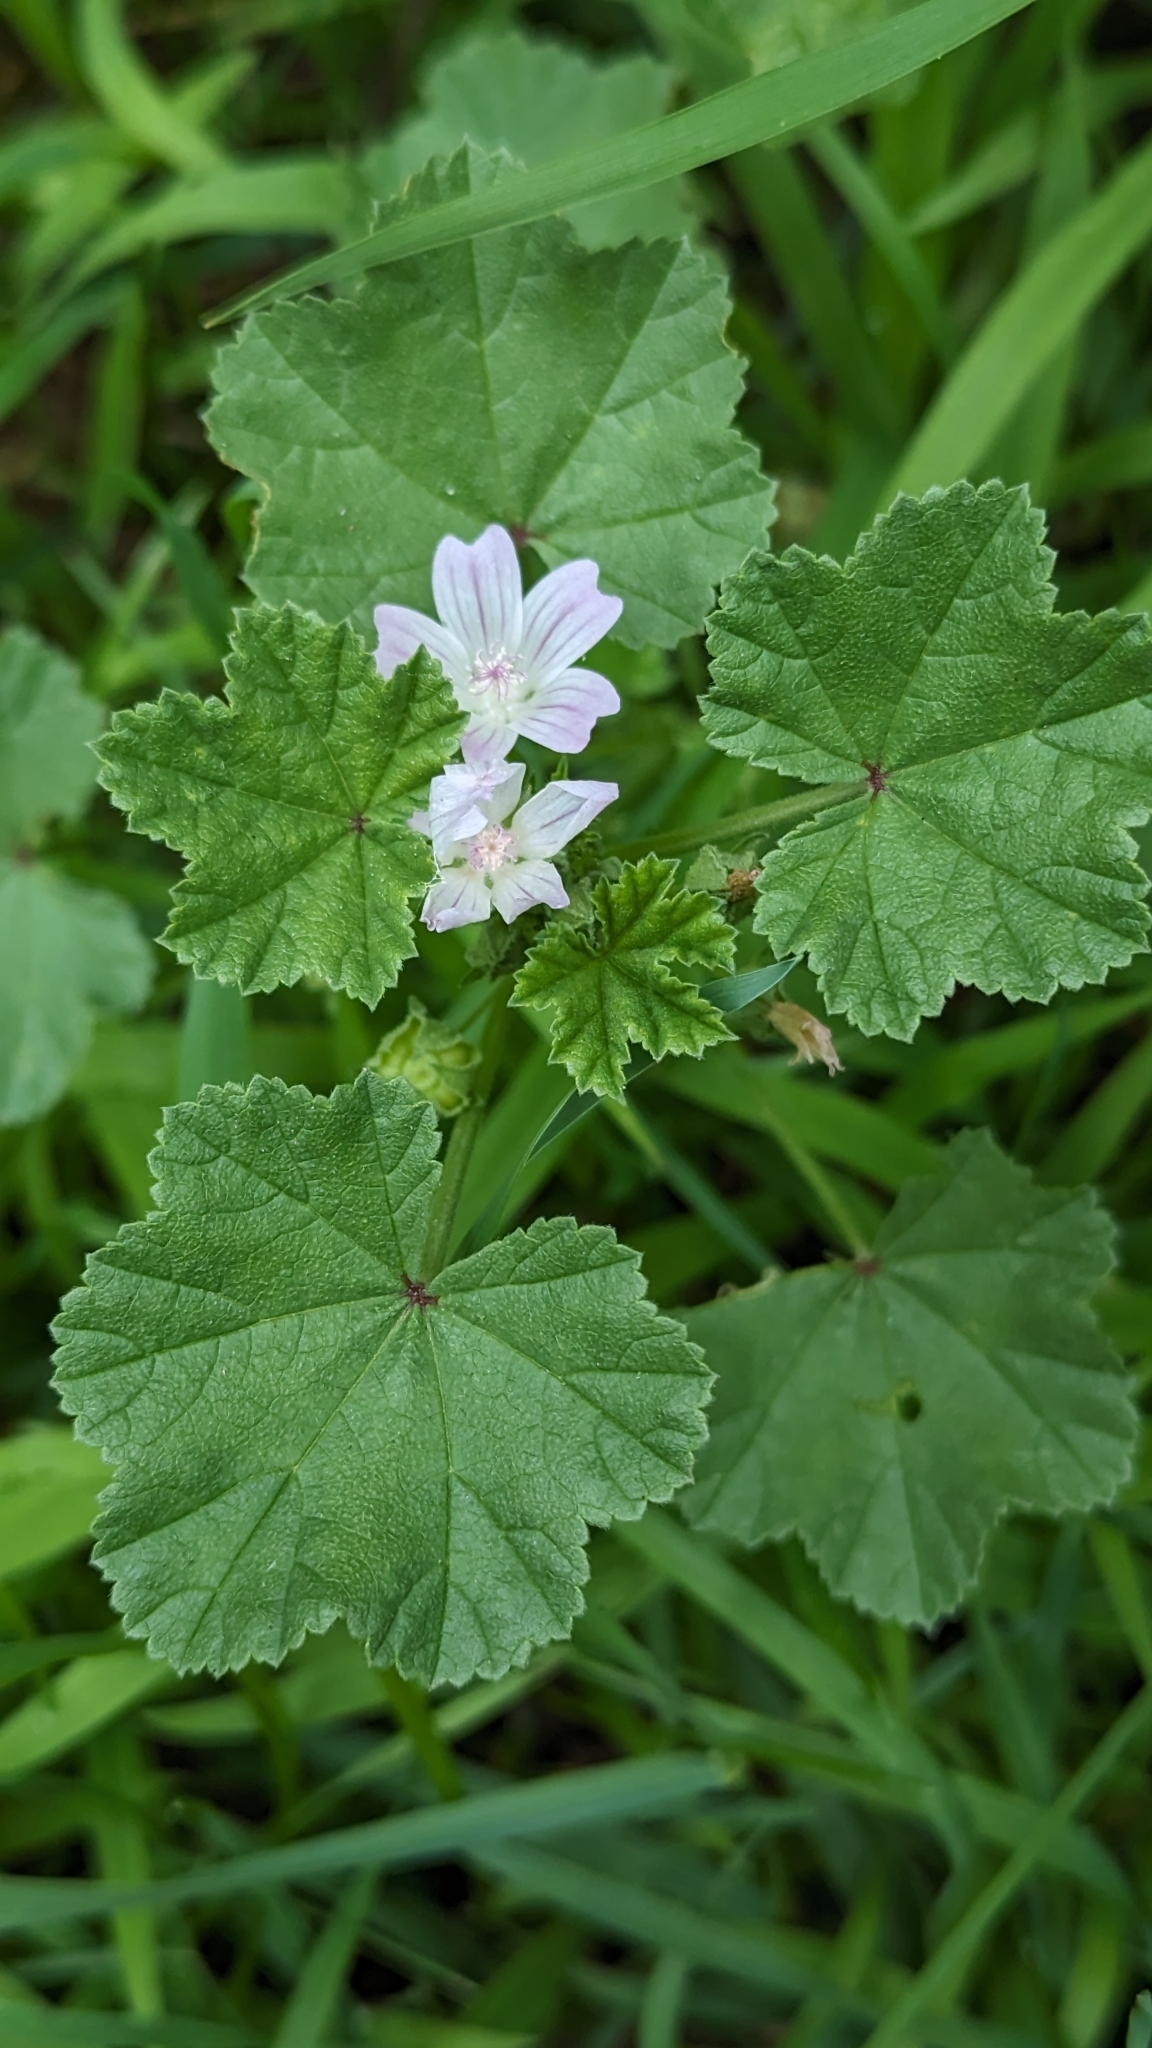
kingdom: Plantae
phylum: Tracheophyta
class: Magnoliopsida
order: Malvales
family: Malvaceae
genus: Malva
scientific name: Malva neglecta
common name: Common mallow
